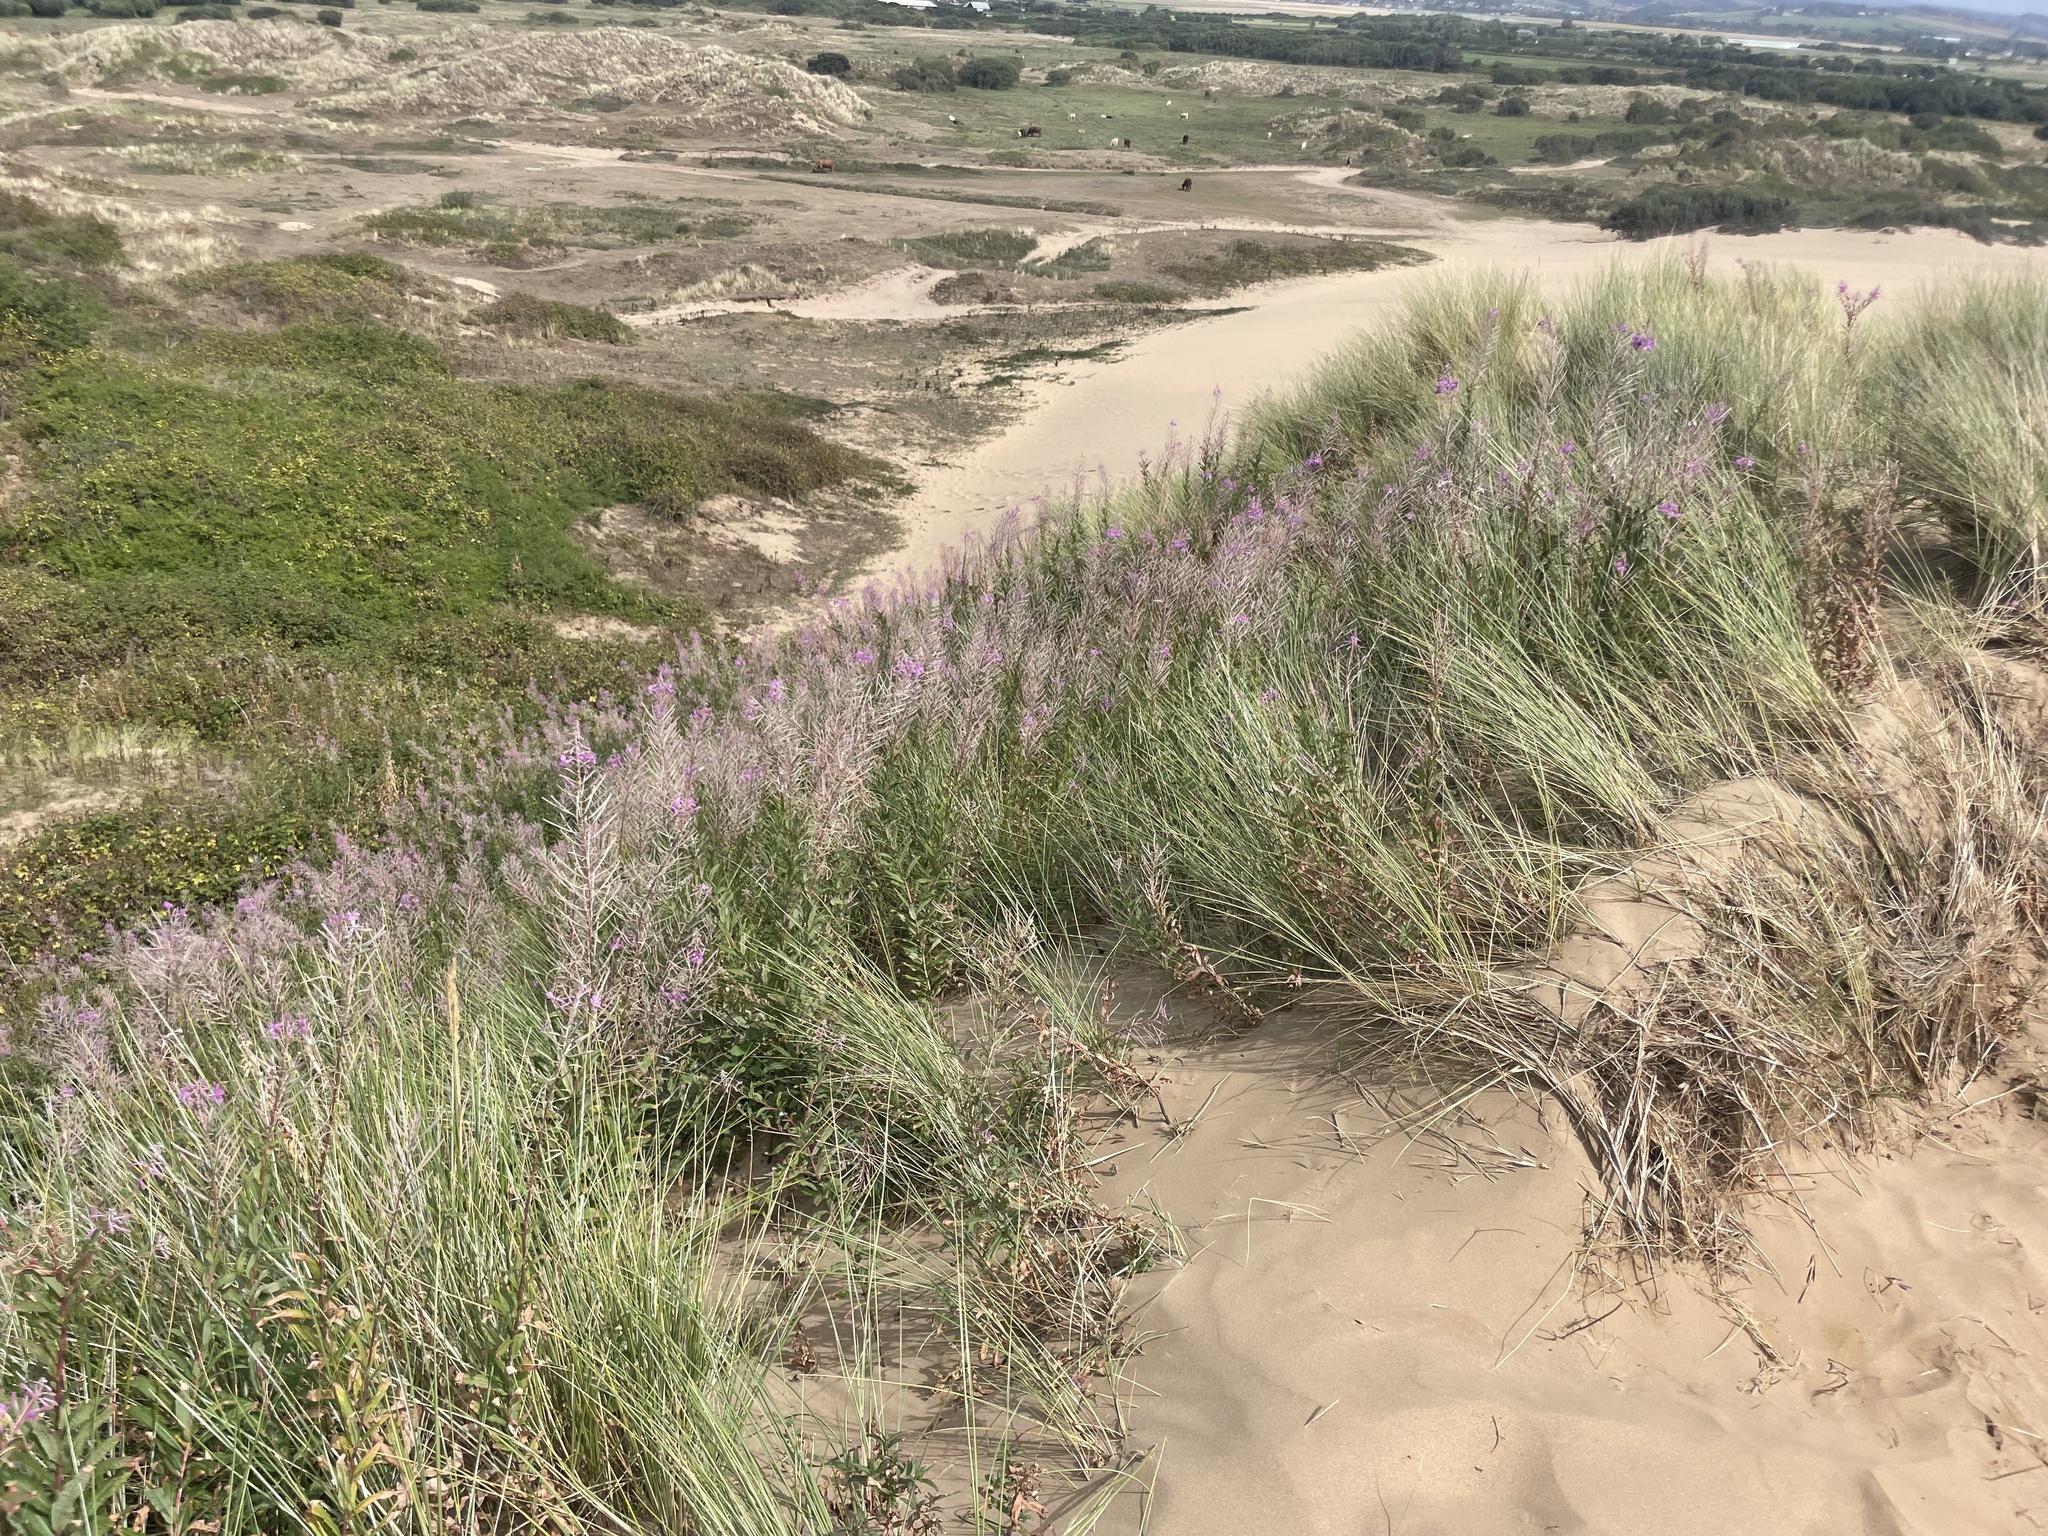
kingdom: Plantae
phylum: Tracheophyta
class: Magnoliopsida
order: Myrtales
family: Onagraceae
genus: Chamaenerion
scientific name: Chamaenerion angustifolium
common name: Fireweed
